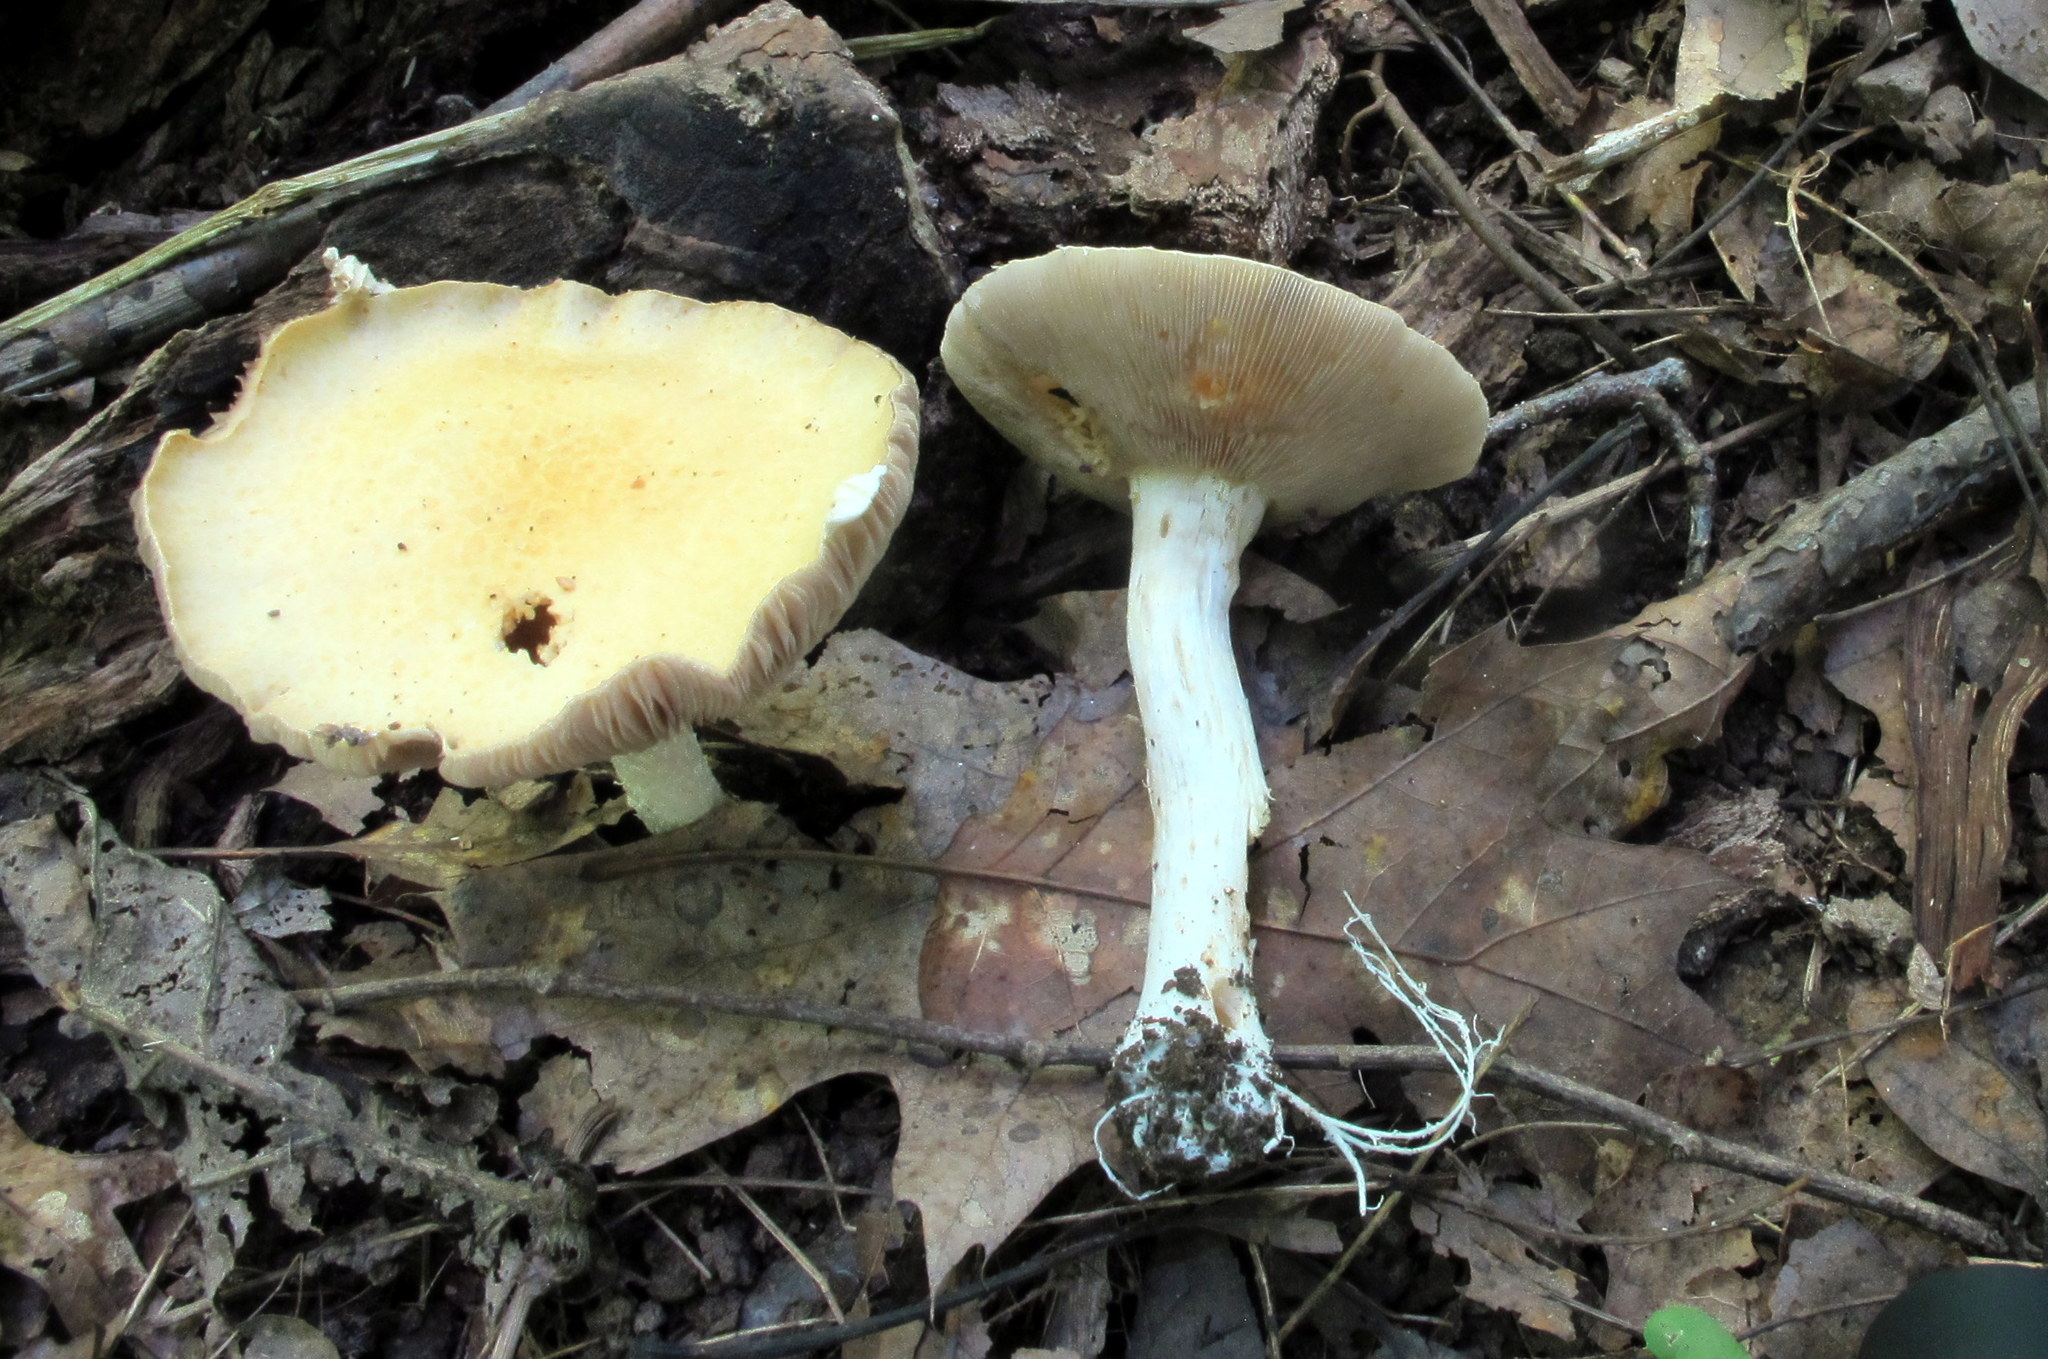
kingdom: Fungi
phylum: Basidiomycota
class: Agaricomycetes
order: Agaricales
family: Strophariaceae
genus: Stropharia
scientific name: Stropharia hardii
